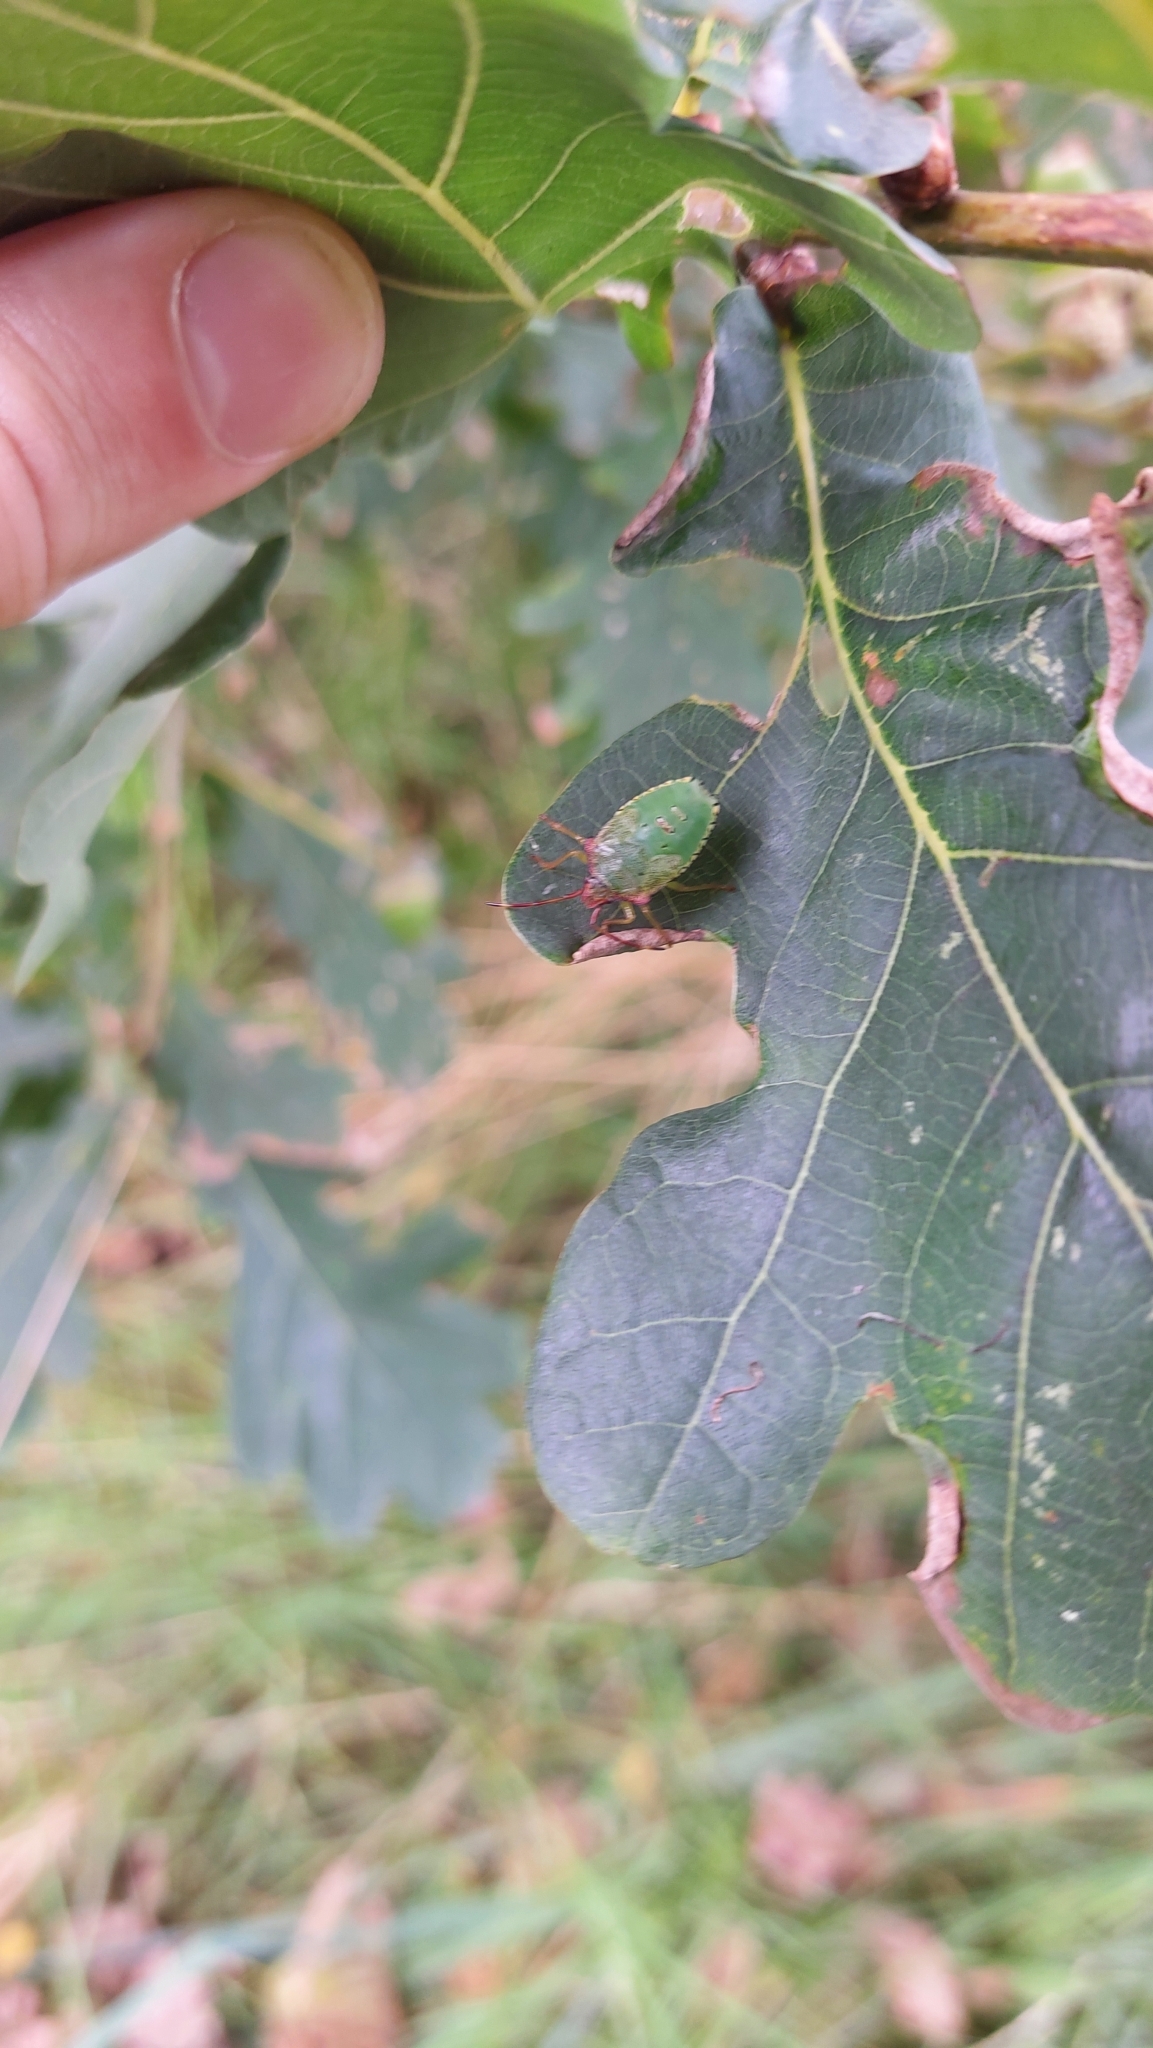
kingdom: Animalia
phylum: Arthropoda
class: Insecta
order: Hemiptera
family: Acanthosomatidae
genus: Acanthosoma
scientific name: Acanthosoma haemorrhoidale
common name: Hawthorn shieldbug
